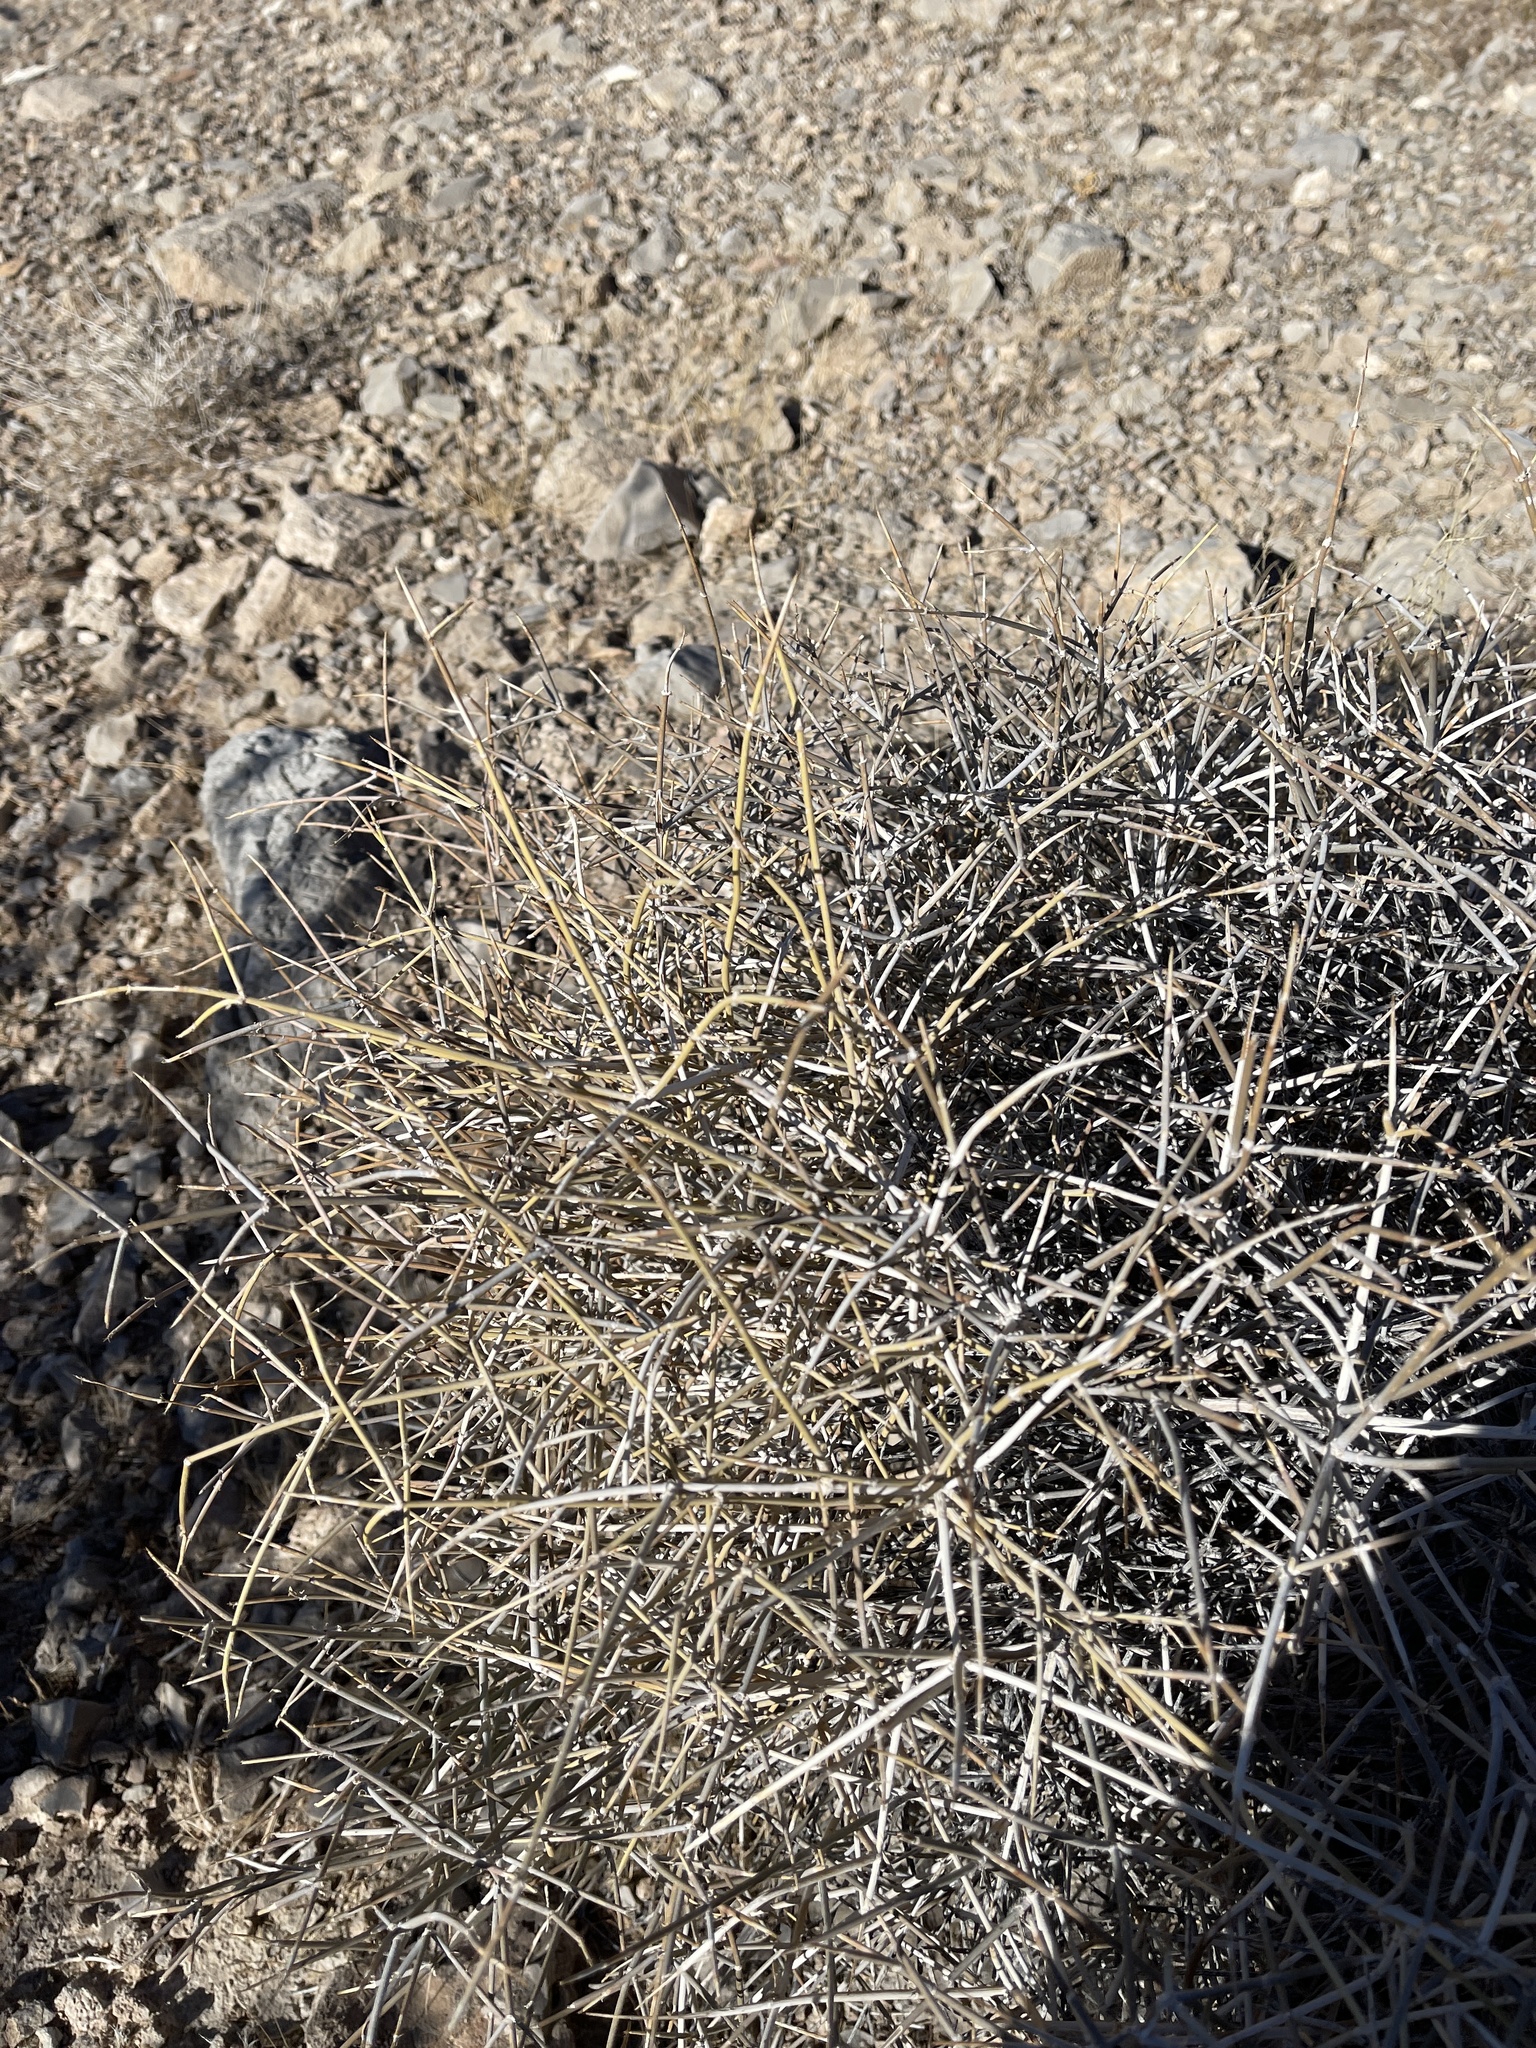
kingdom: Plantae
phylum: Tracheophyta
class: Gnetopsida
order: Ephedrales
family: Ephedraceae
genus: Ephedra
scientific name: Ephedra nevadensis
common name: Gray ephedra
